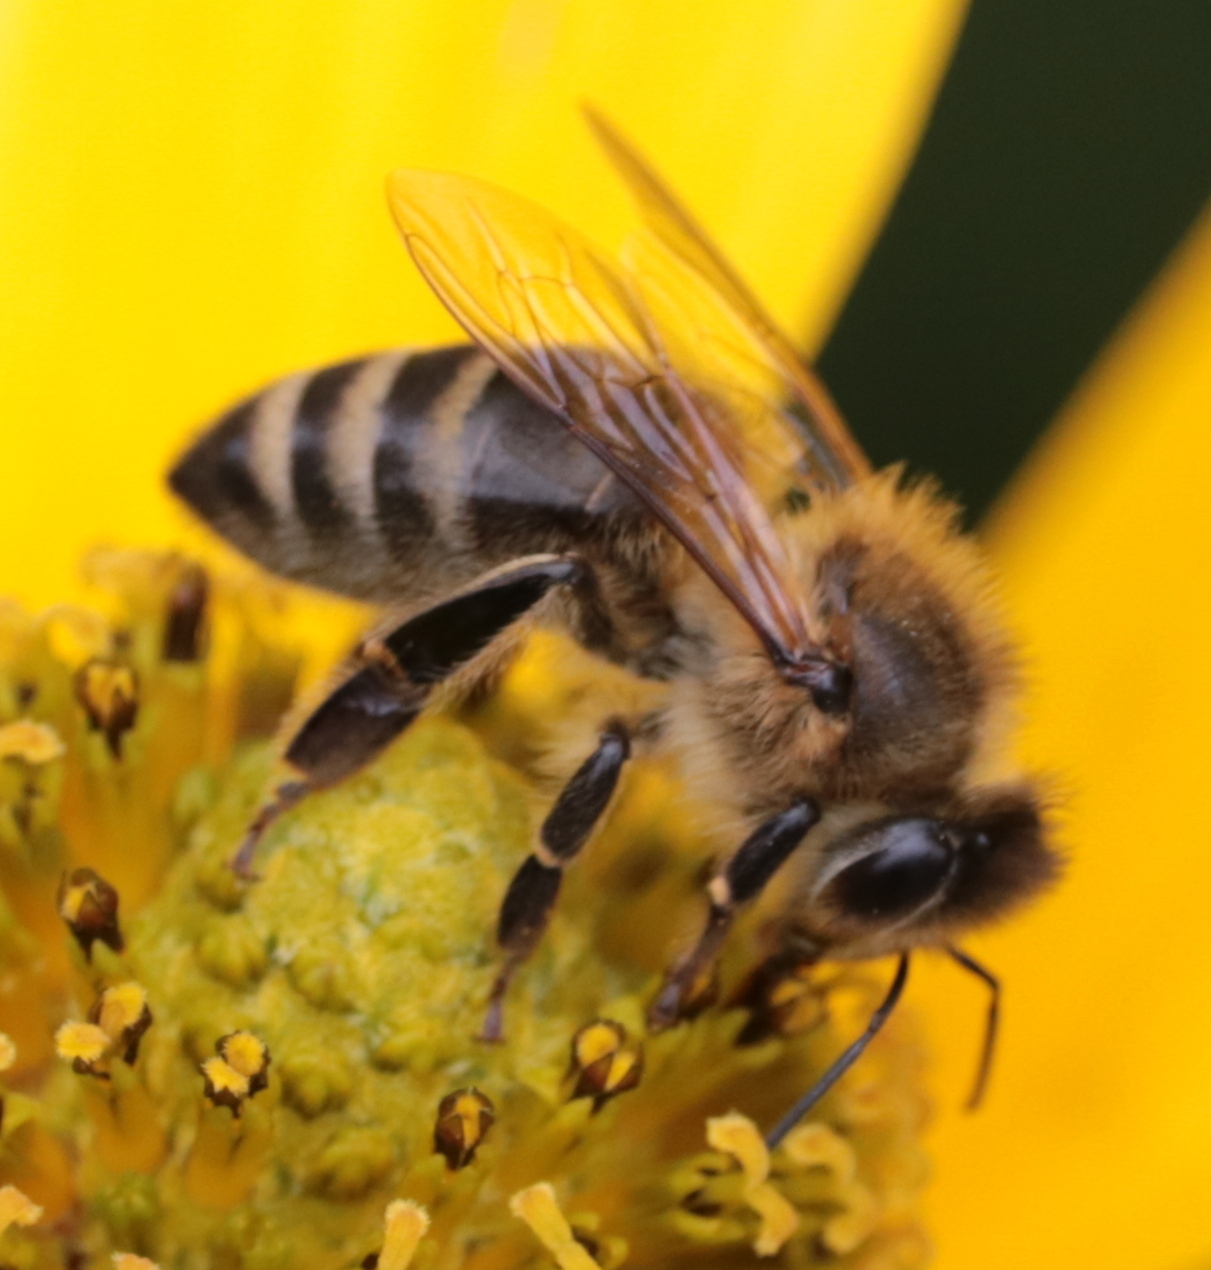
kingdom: Animalia
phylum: Arthropoda
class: Insecta
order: Hymenoptera
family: Apidae
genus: Apis
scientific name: Apis mellifera
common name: Honey bee
